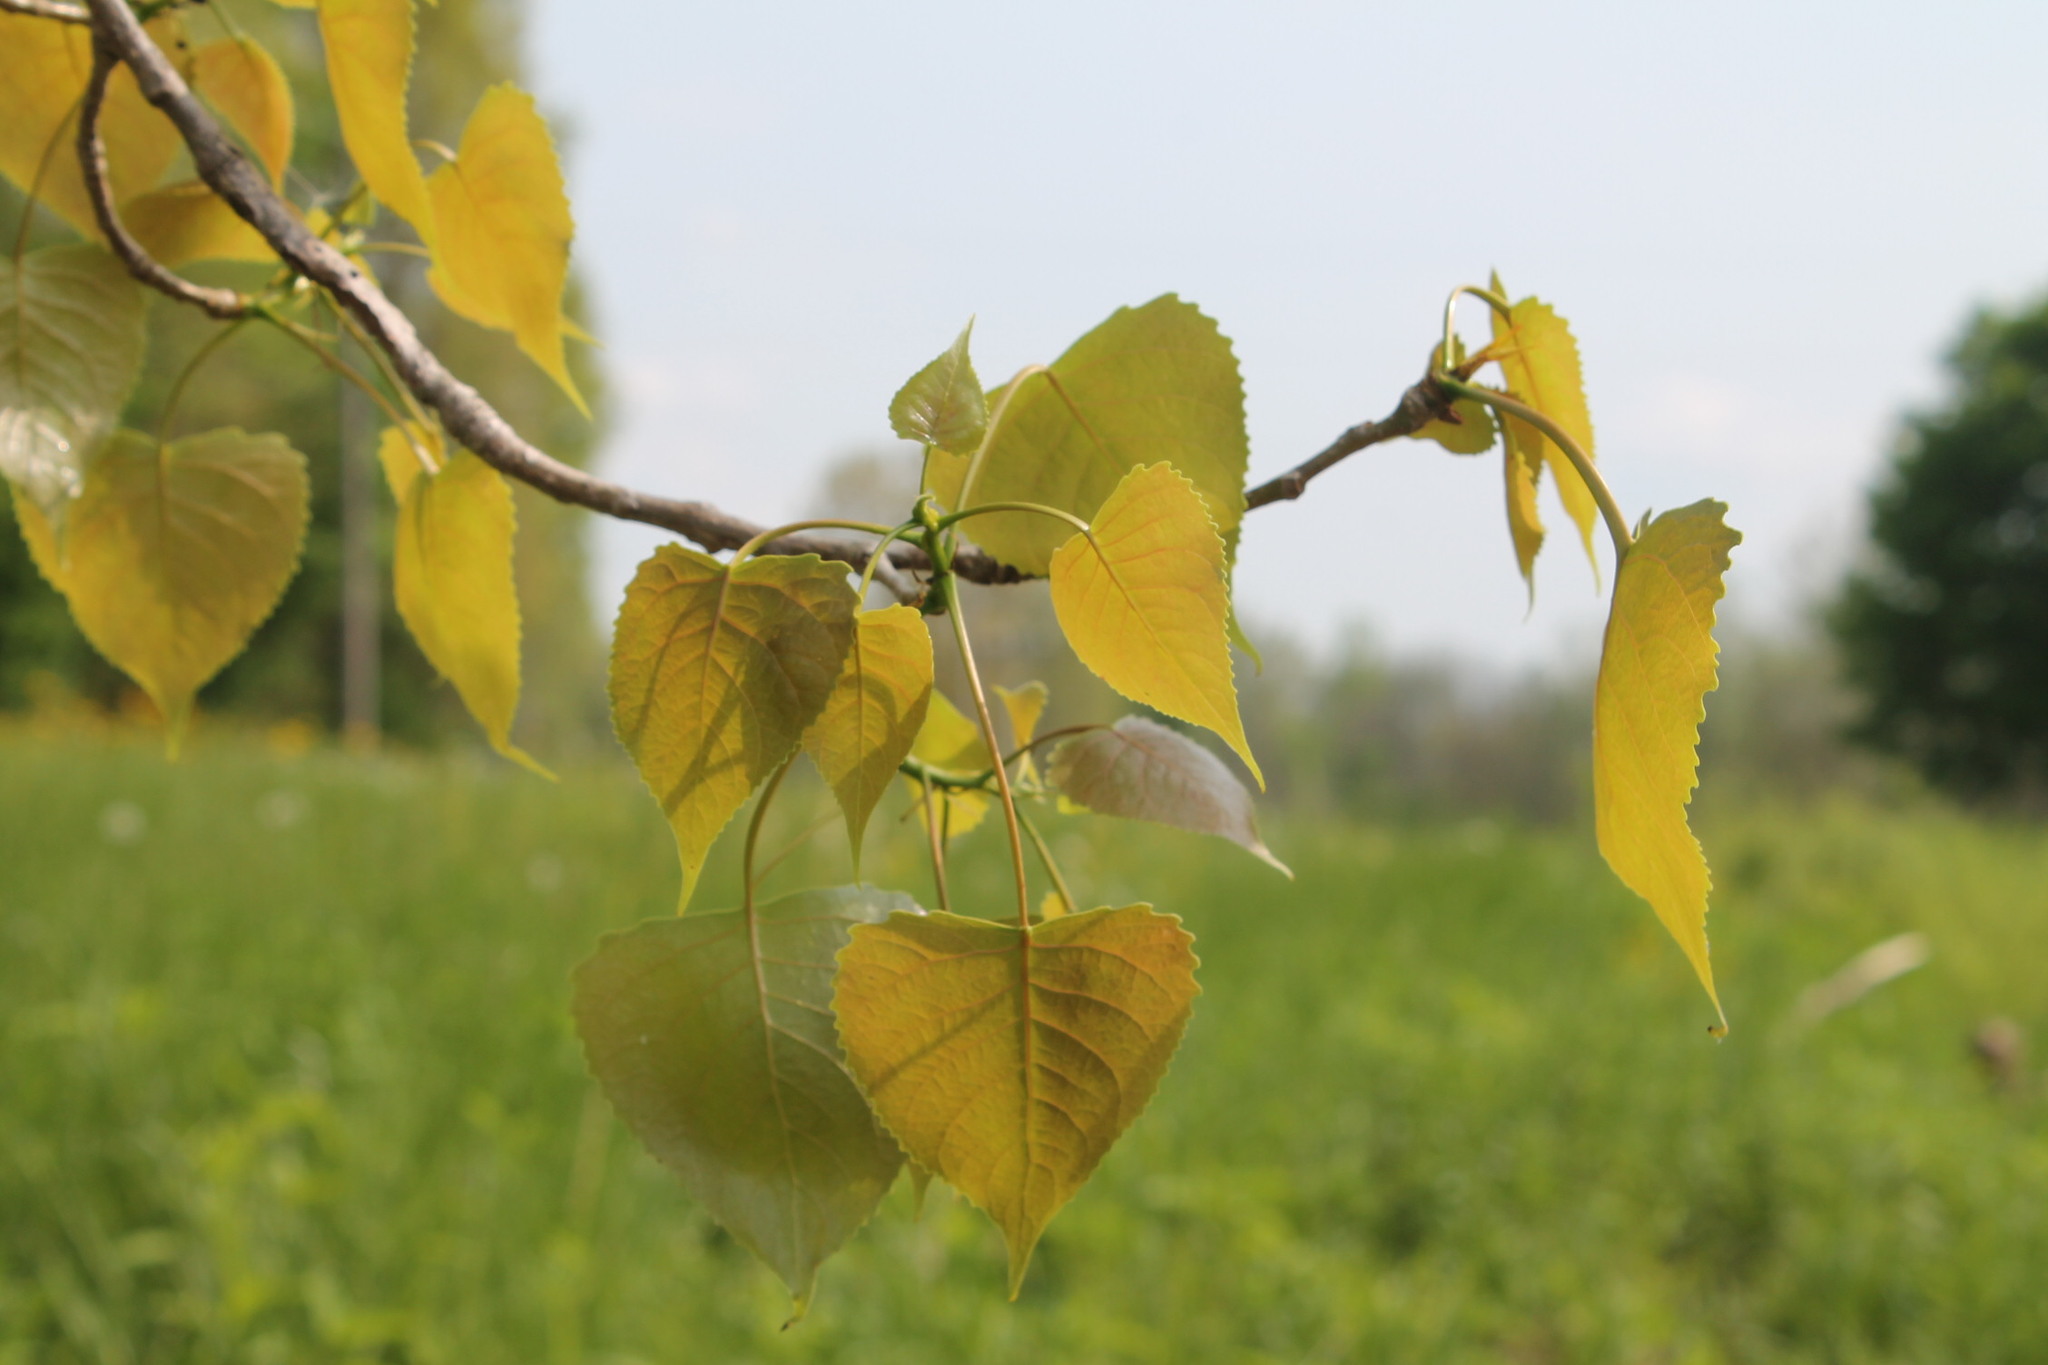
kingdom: Plantae
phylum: Tracheophyta
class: Magnoliopsida
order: Malpighiales
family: Salicaceae
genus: Populus
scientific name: Populus deltoides
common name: Eastern cottonwood
